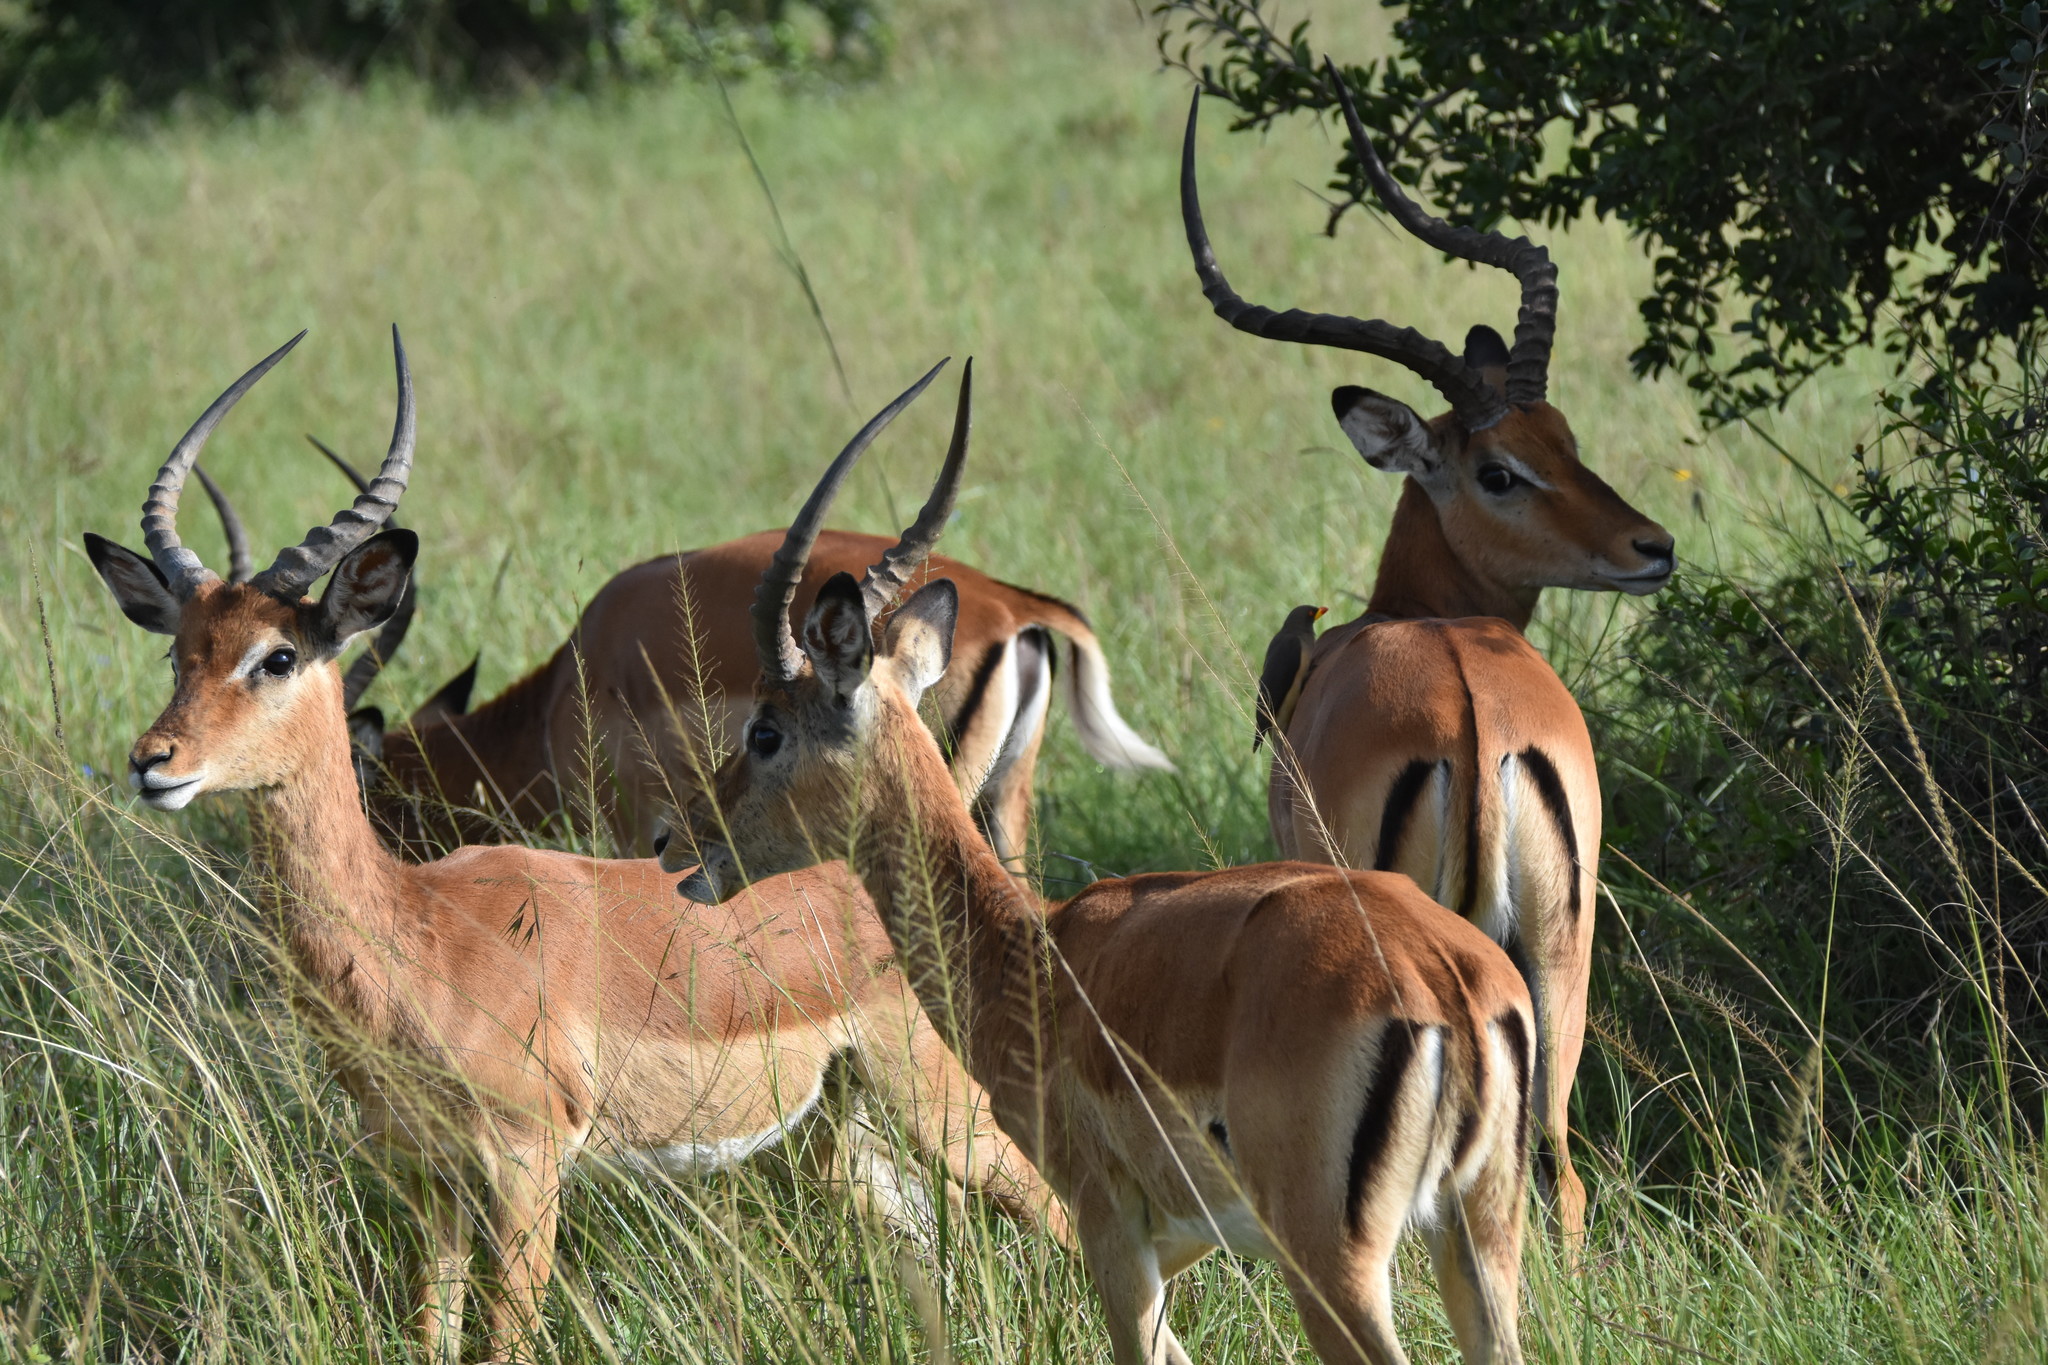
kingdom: Animalia
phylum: Chordata
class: Mammalia
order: Artiodactyla
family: Bovidae
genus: Aepyceros
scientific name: Aepyceros melampus
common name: Impala
